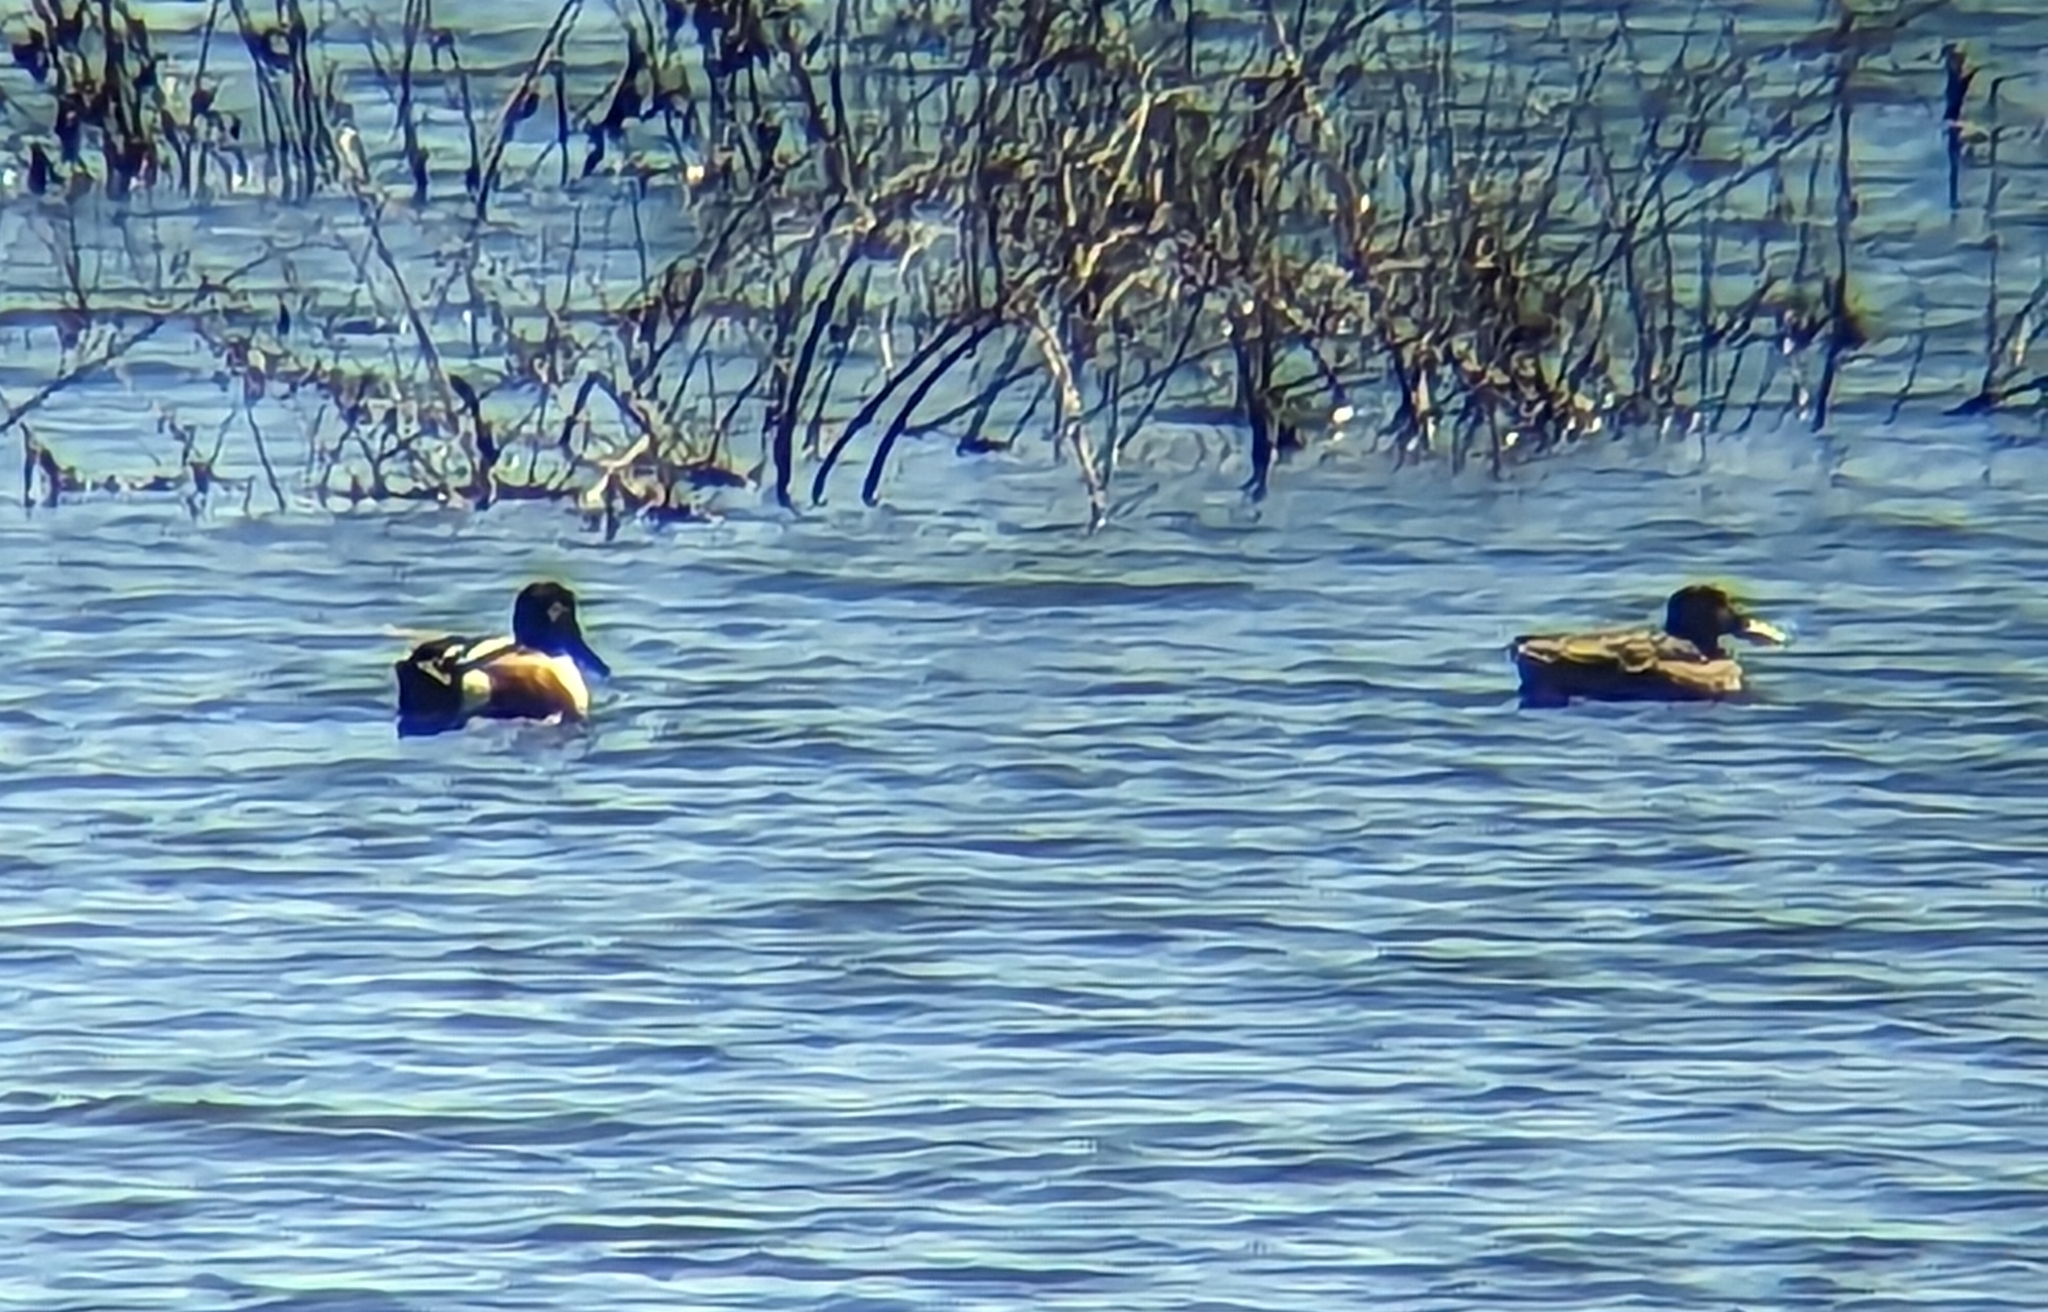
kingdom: Animalia
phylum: Chordata
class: Aves
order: Anseriformes
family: Anatidae
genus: Spatula
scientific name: Spatula clypeata
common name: Northern shoveler
